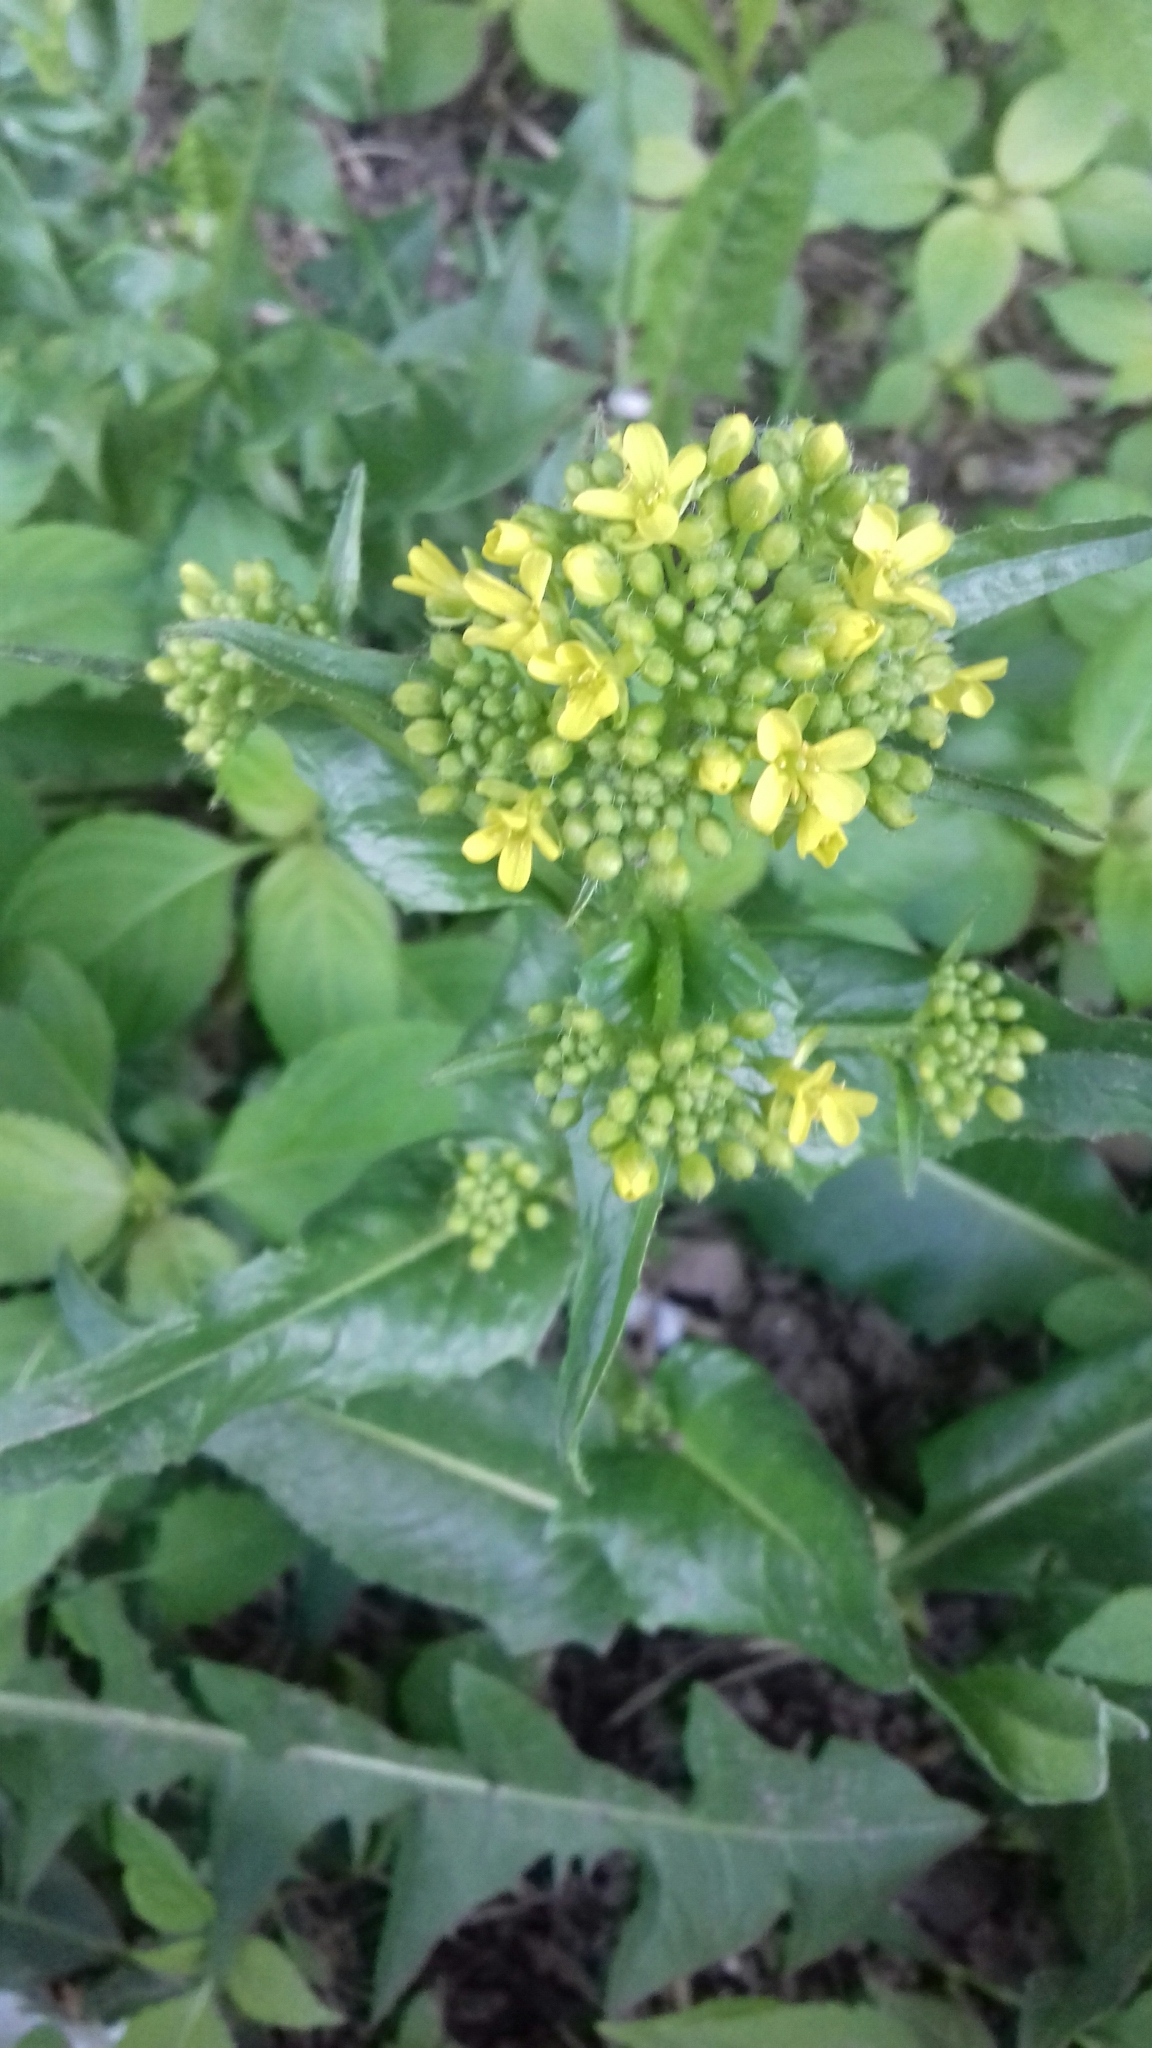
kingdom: Plantae
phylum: Tracheophyta
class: Magnoliopsida
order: Brassicales
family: Brassicaceae
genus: Bunias
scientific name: Bunias orientalis
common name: Warty-cabbage
